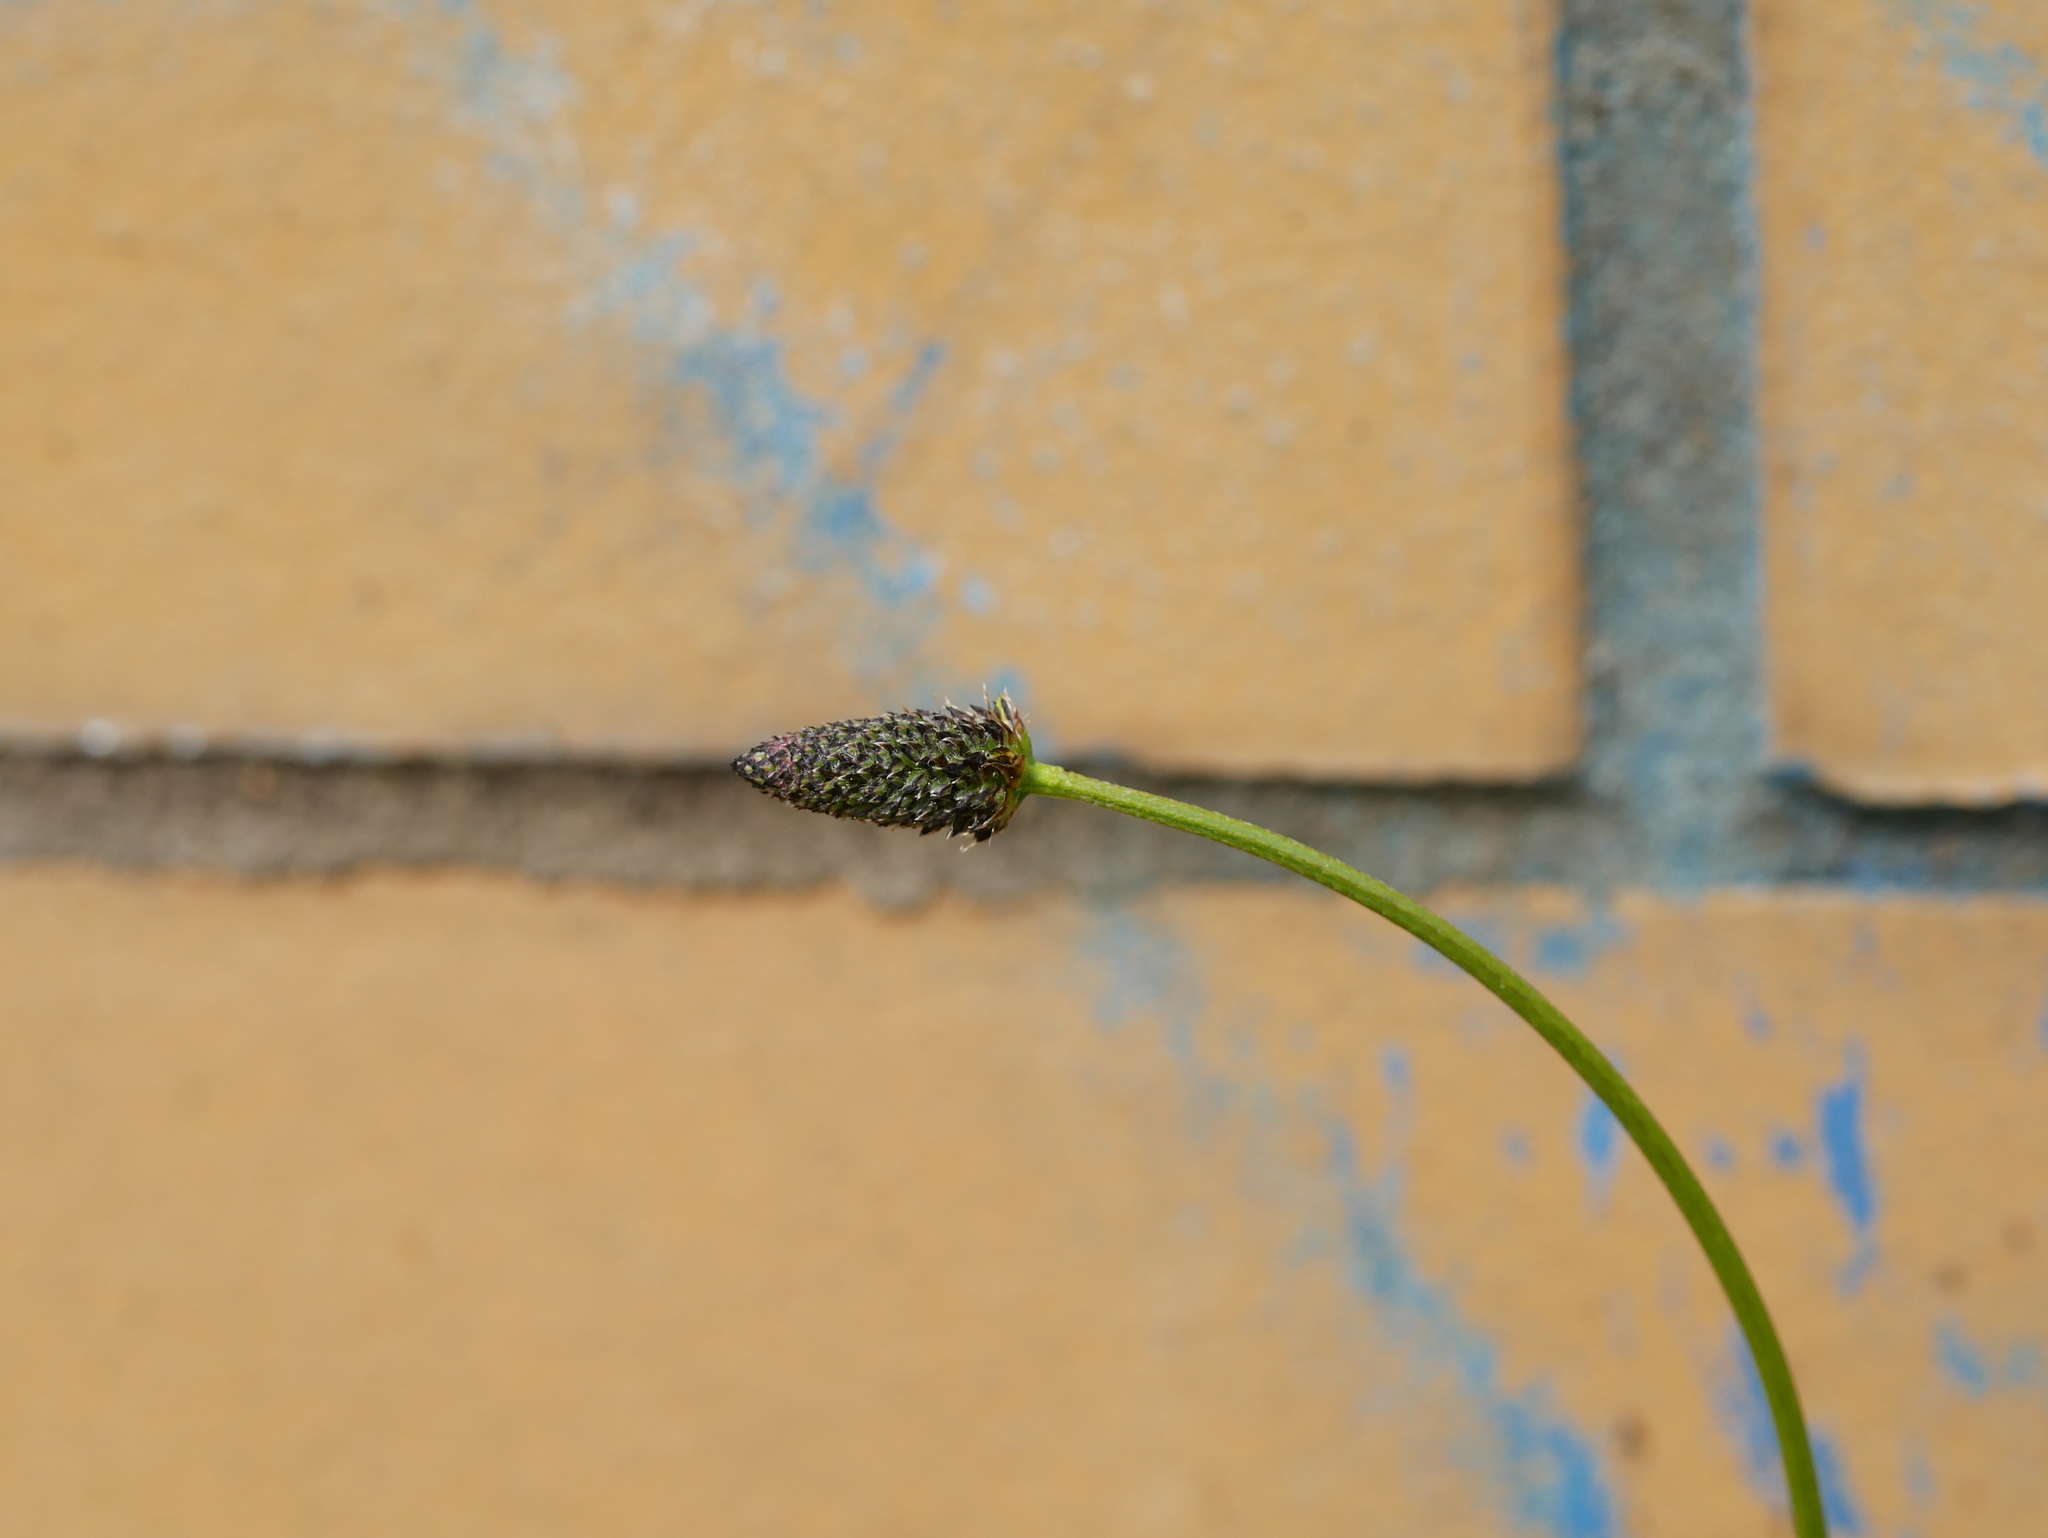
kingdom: Plantae
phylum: Tracheophyta
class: Magnoliopsida
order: Lamiales
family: Plantaginaceae
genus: Plantago
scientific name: Plantago lanceolata
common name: Ribwort plantain
